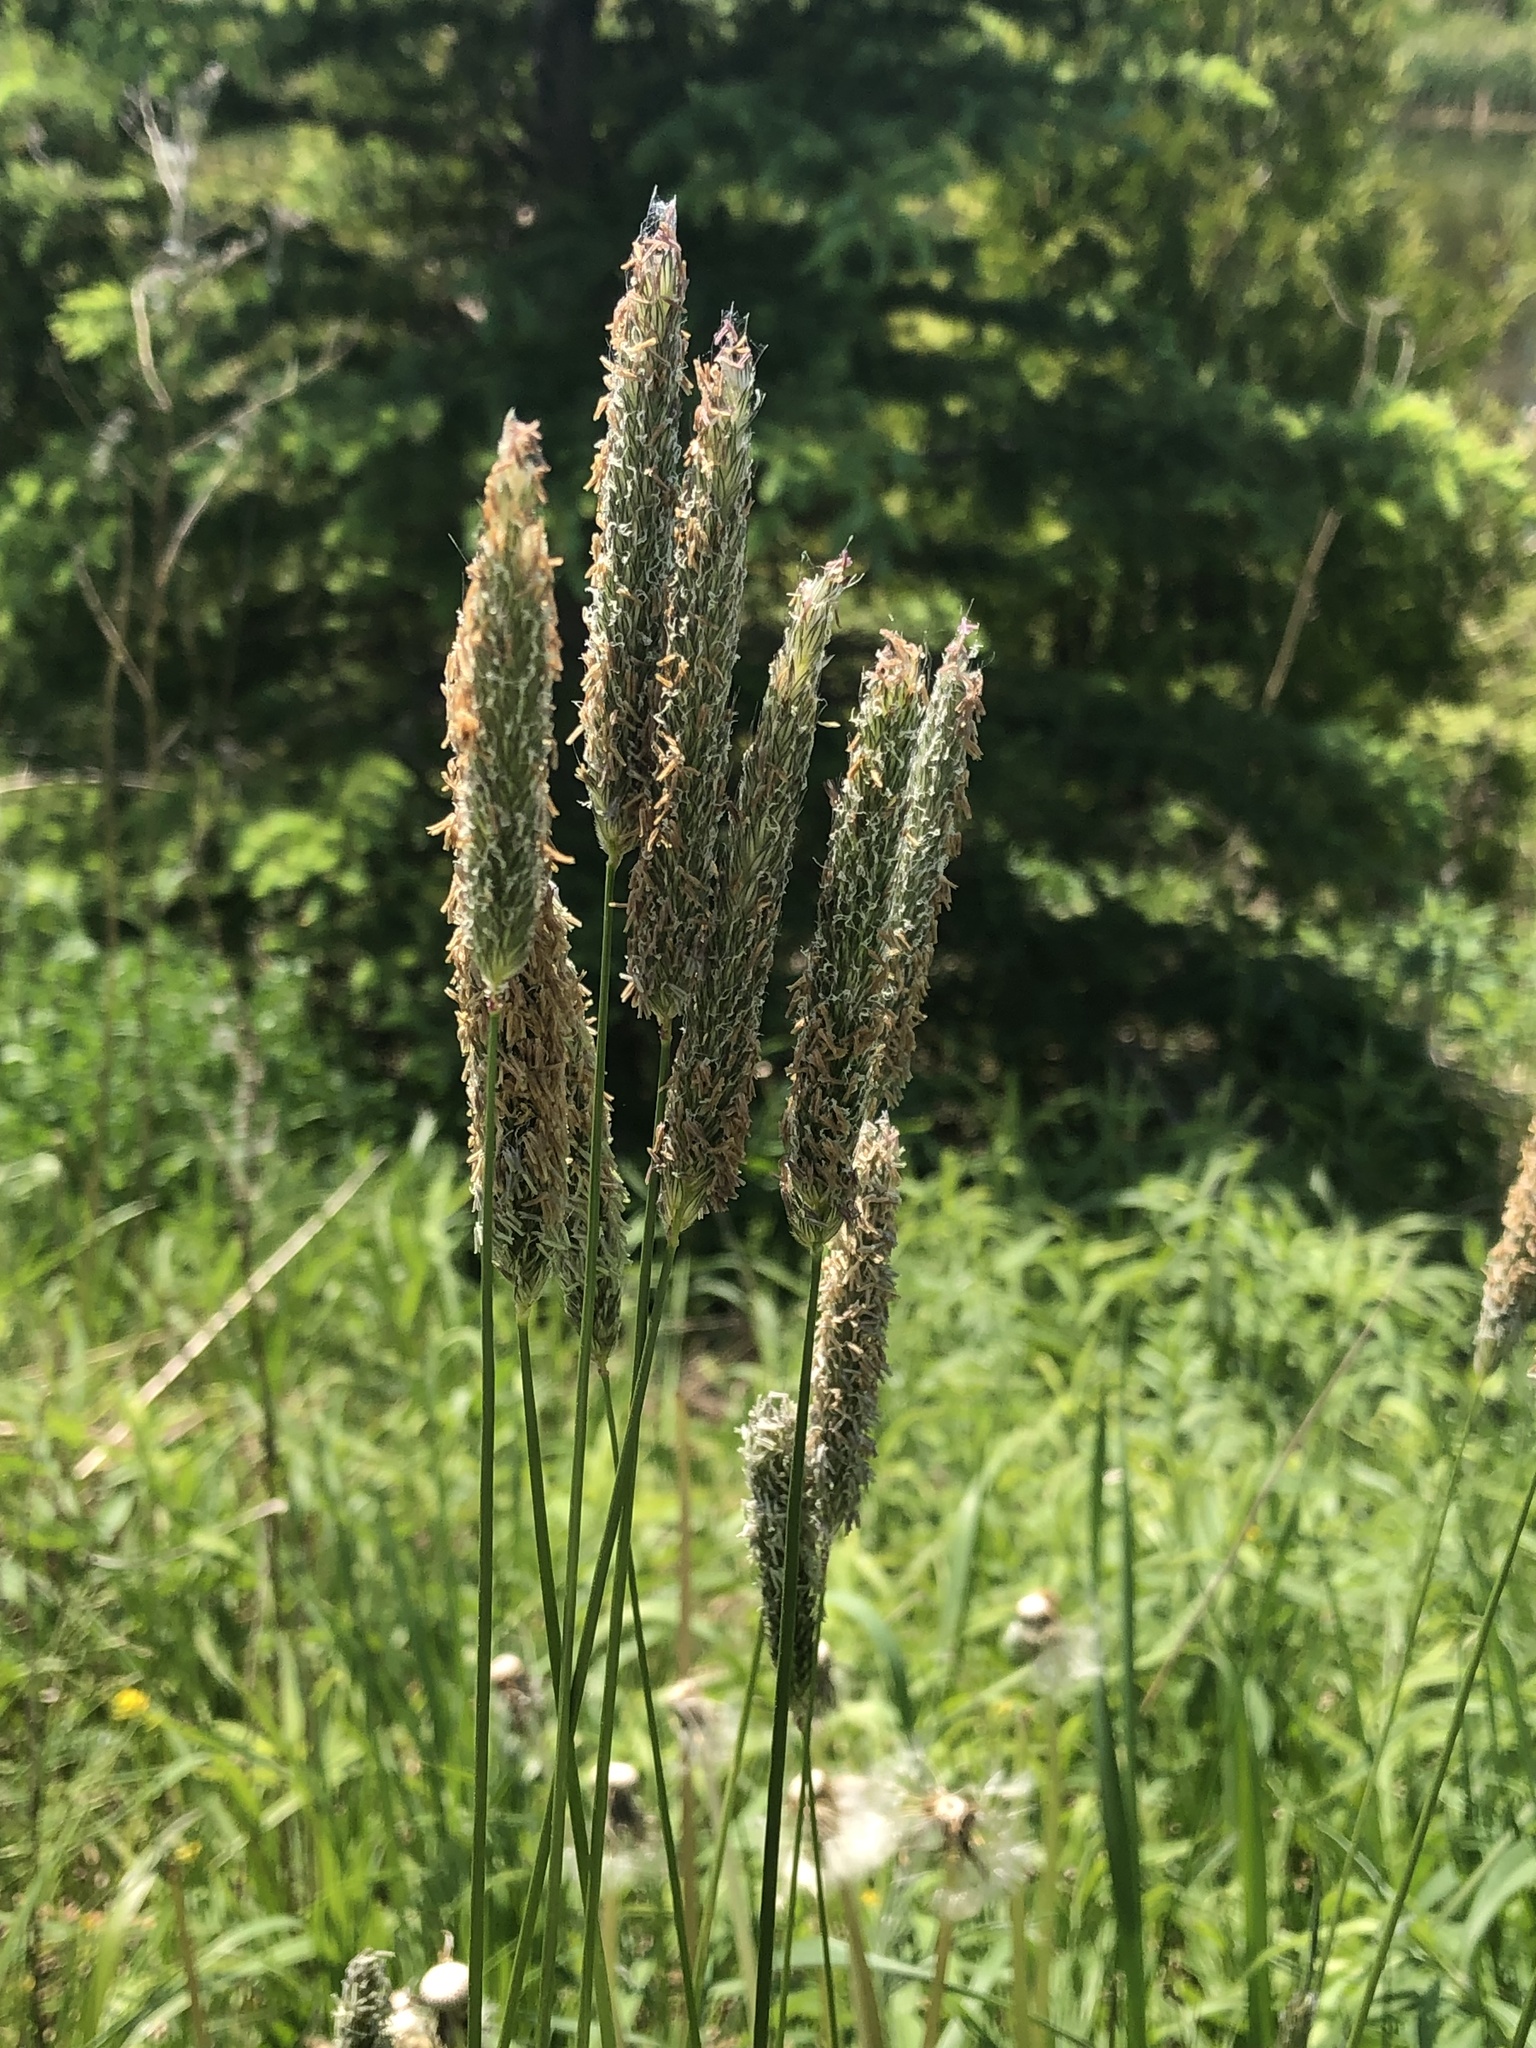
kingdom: Plantae
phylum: Tracheophyta
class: Liliopsida
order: Poales
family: Poaceae
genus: Alopecurus
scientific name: Alopecurus pratensis
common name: Meadow foxtail
